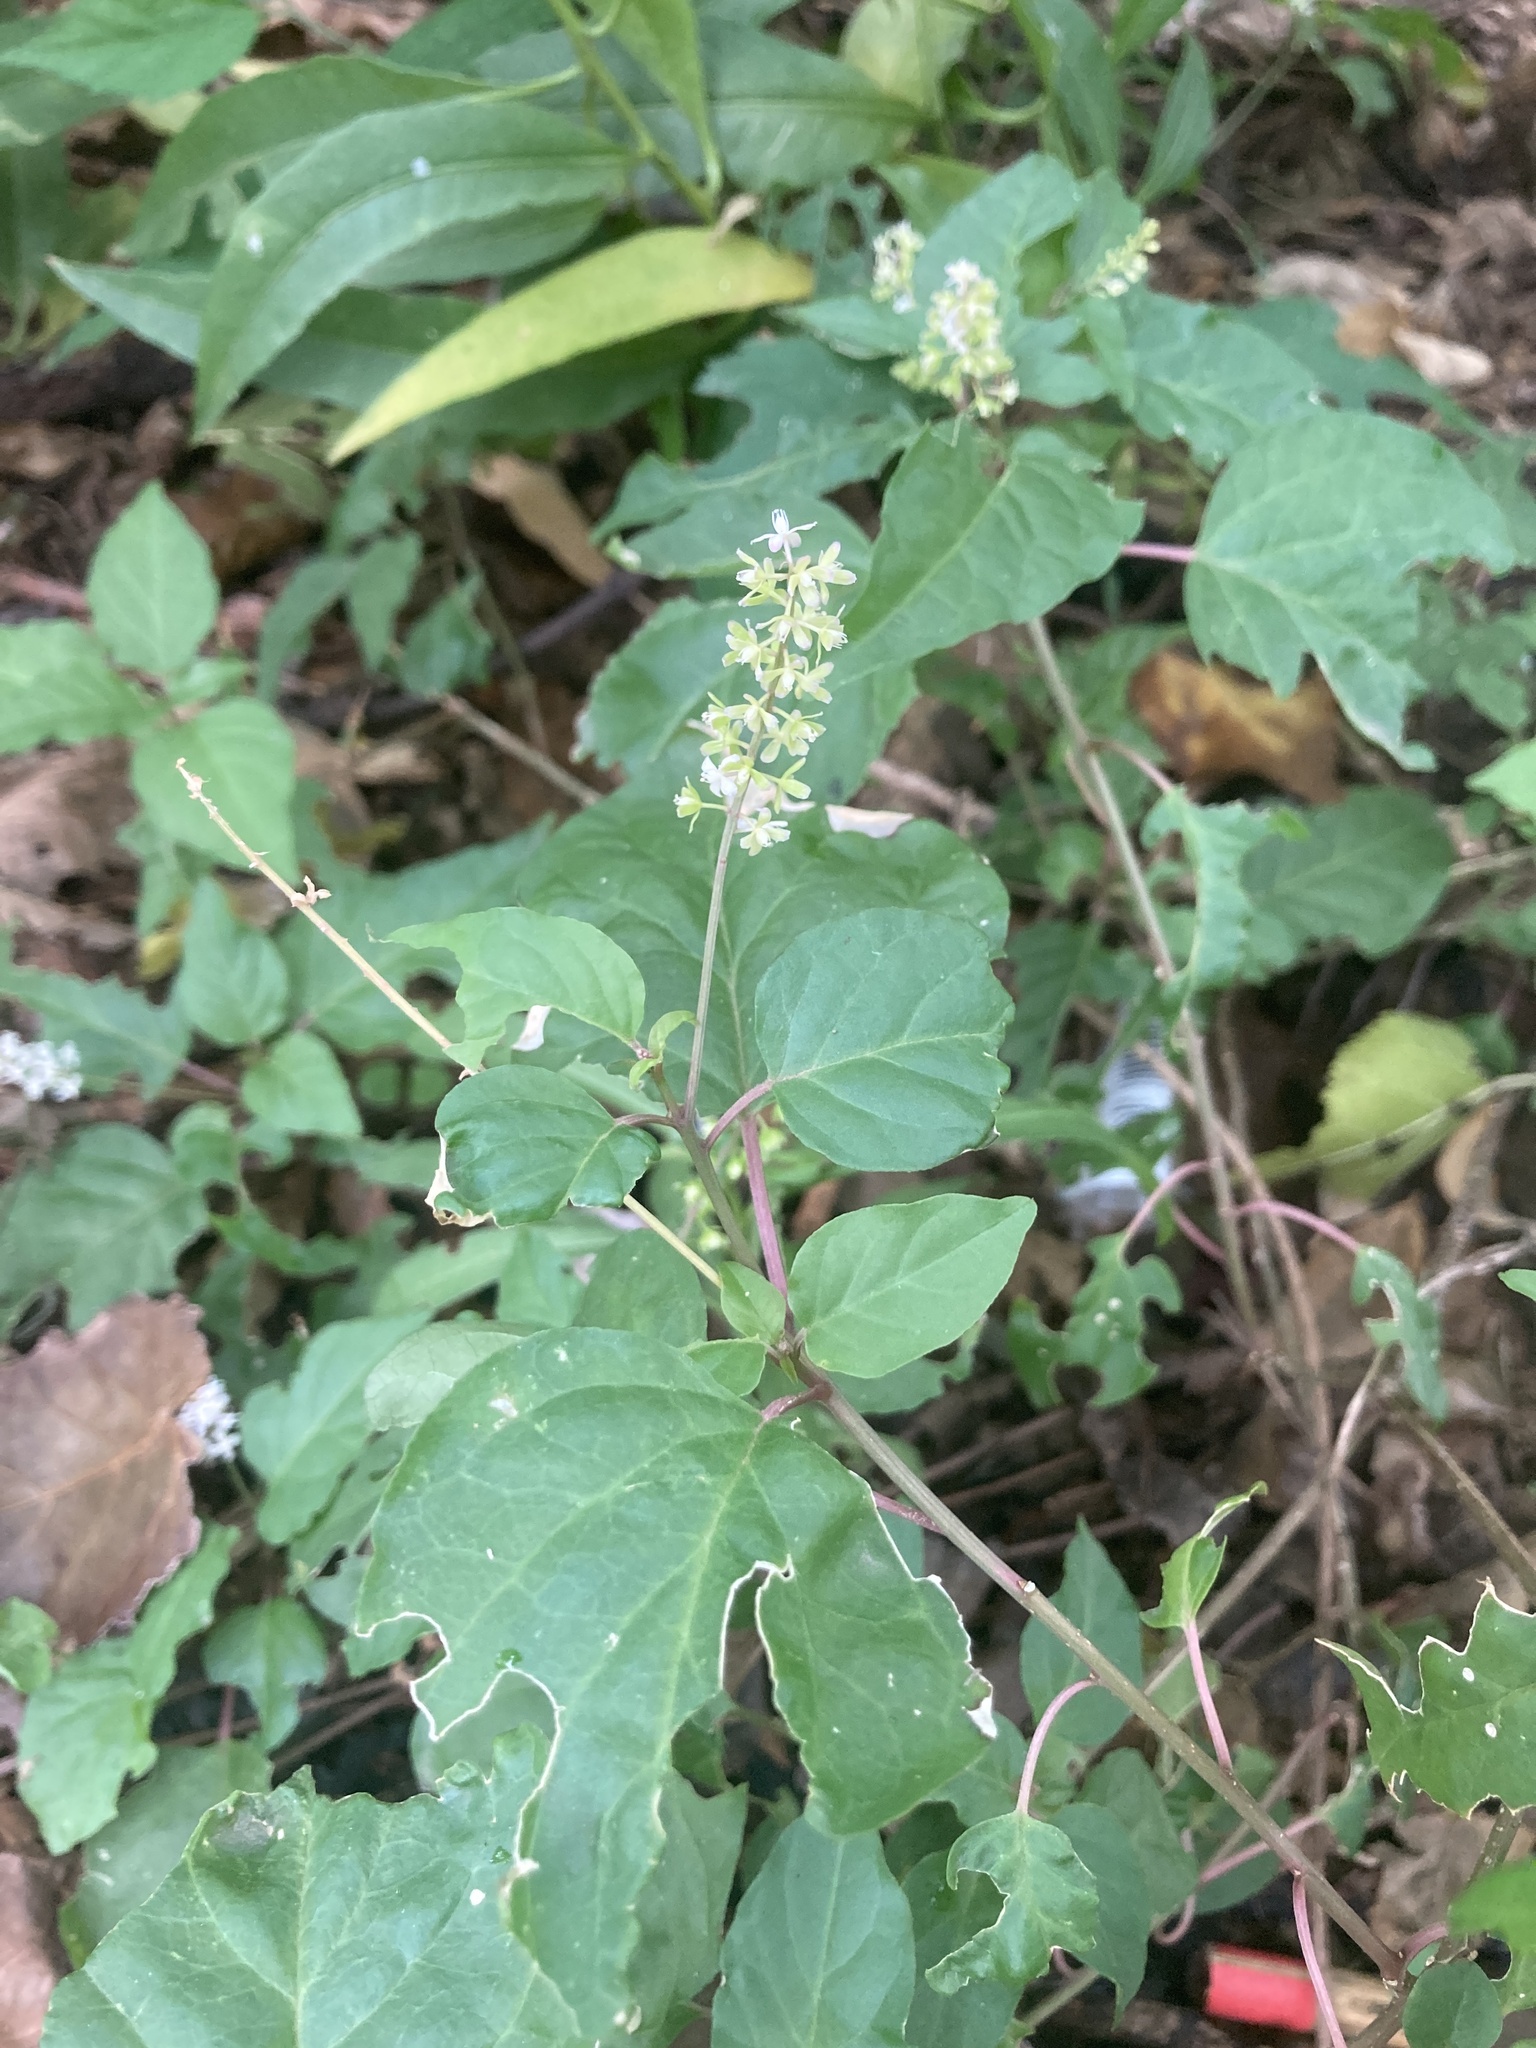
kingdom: Plantae
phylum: Tracheophyta
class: Magnoliopsida
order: Caryophyllales
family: Phytolaccaceae
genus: Rivina
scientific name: Rivina humilis
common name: Rougeplant
